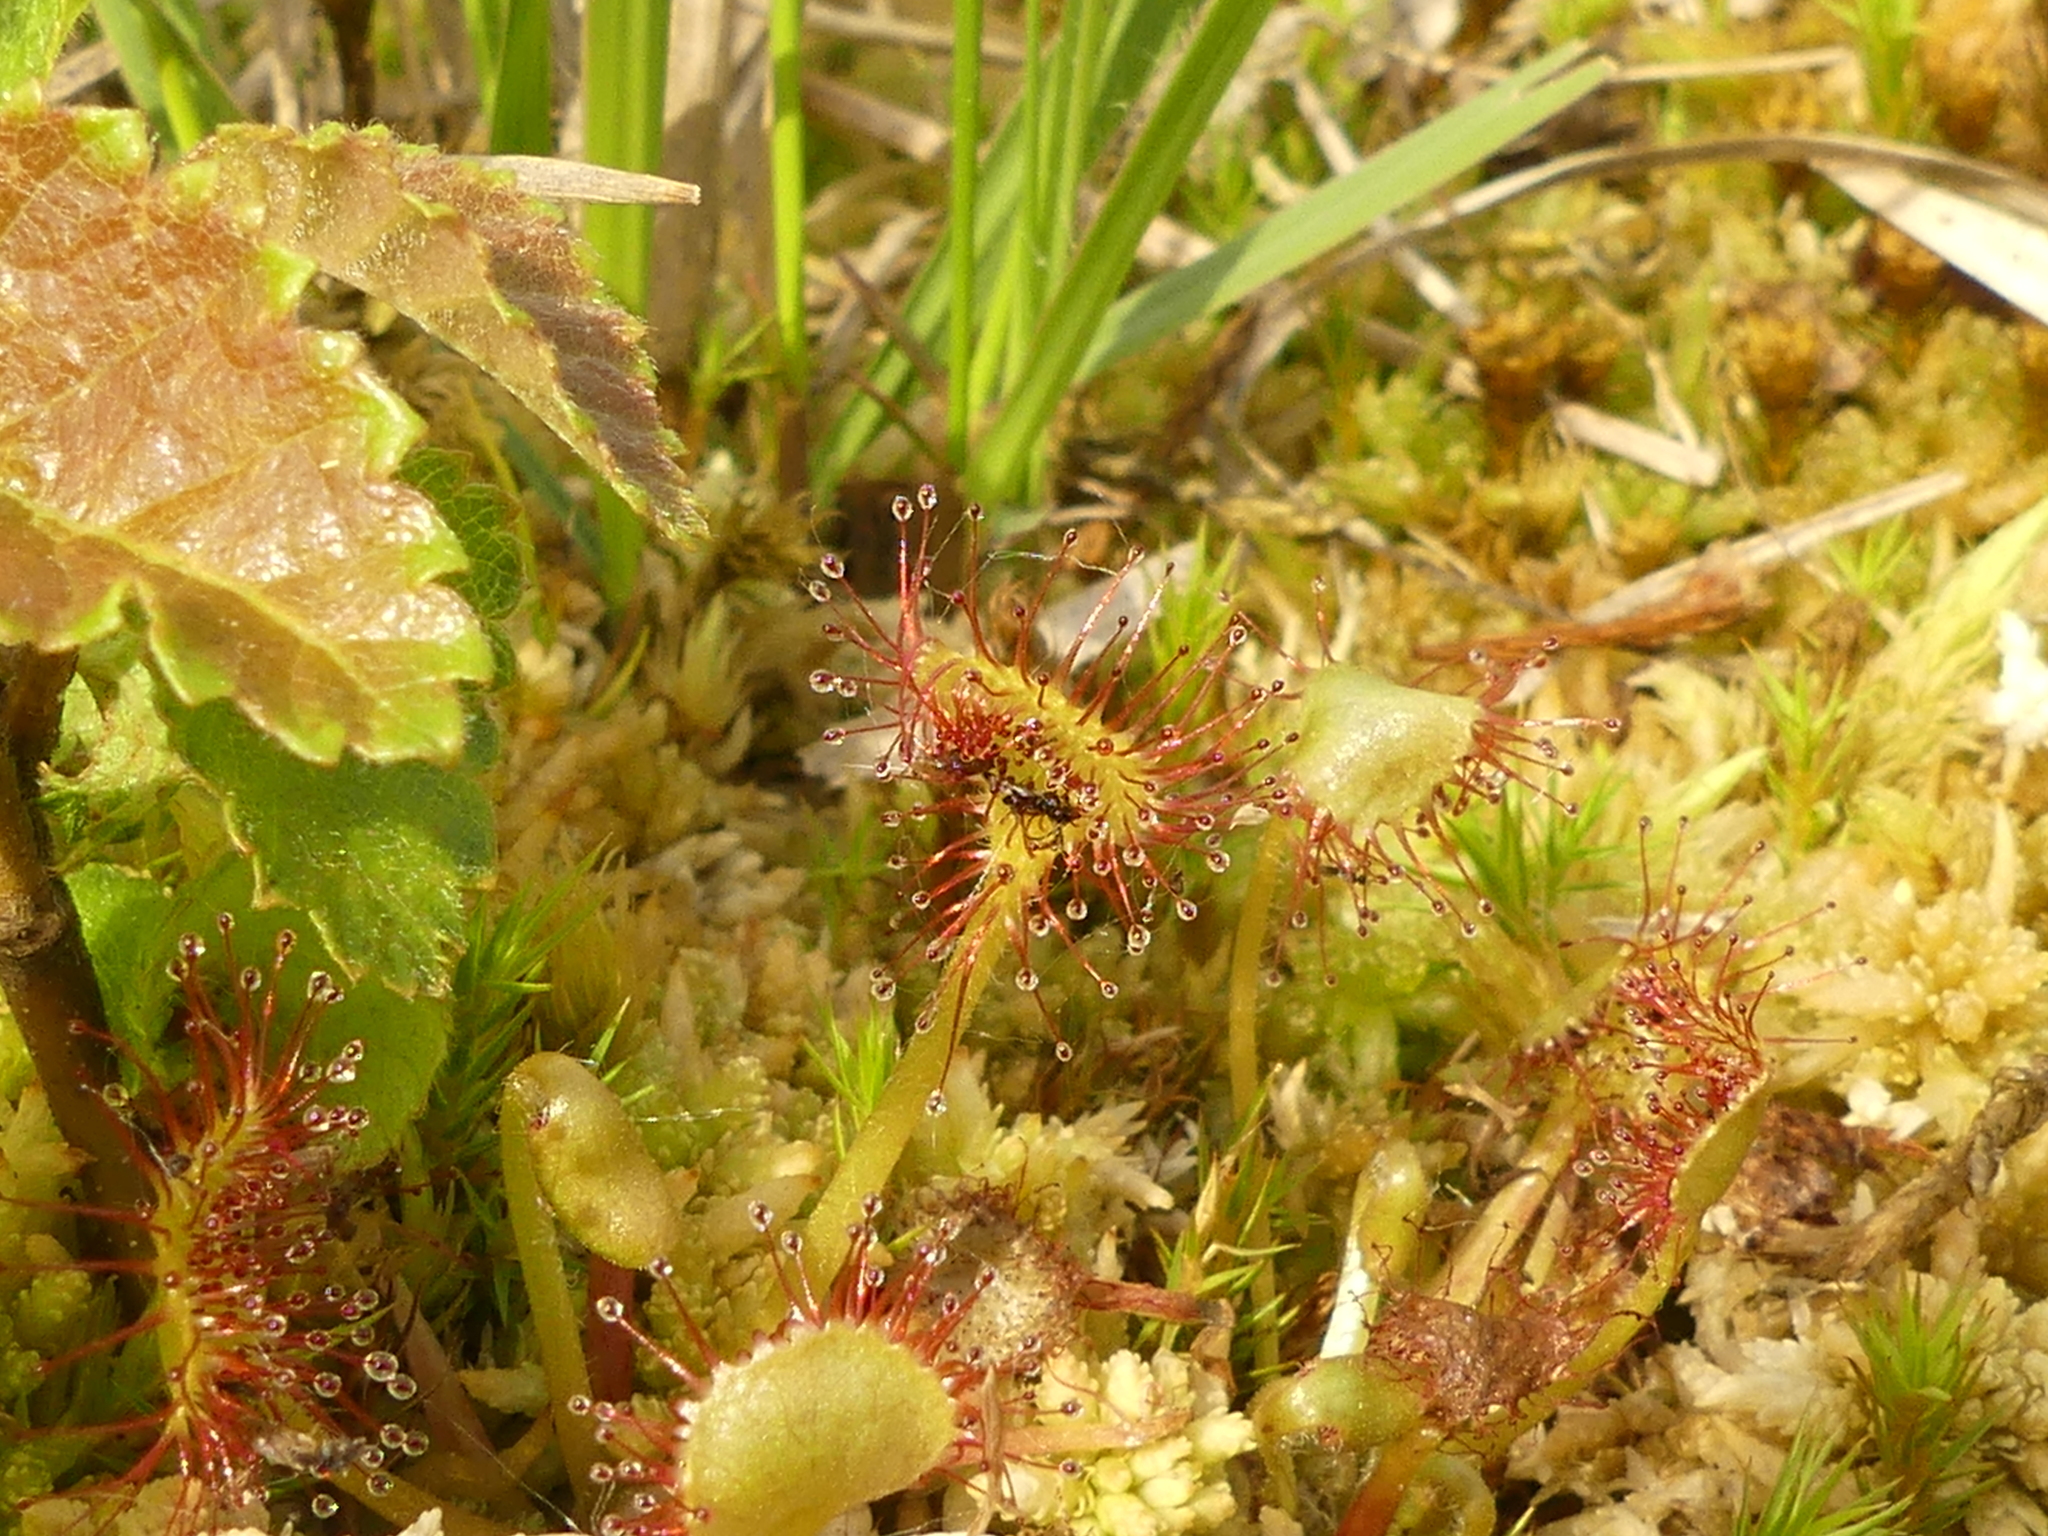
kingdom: Plantae
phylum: Tracheophyta
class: Magnoliopsida
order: Caryophyllales
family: Droseraceae
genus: Drosera
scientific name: Drosera rotundifolia
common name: Round-leaved sundew
